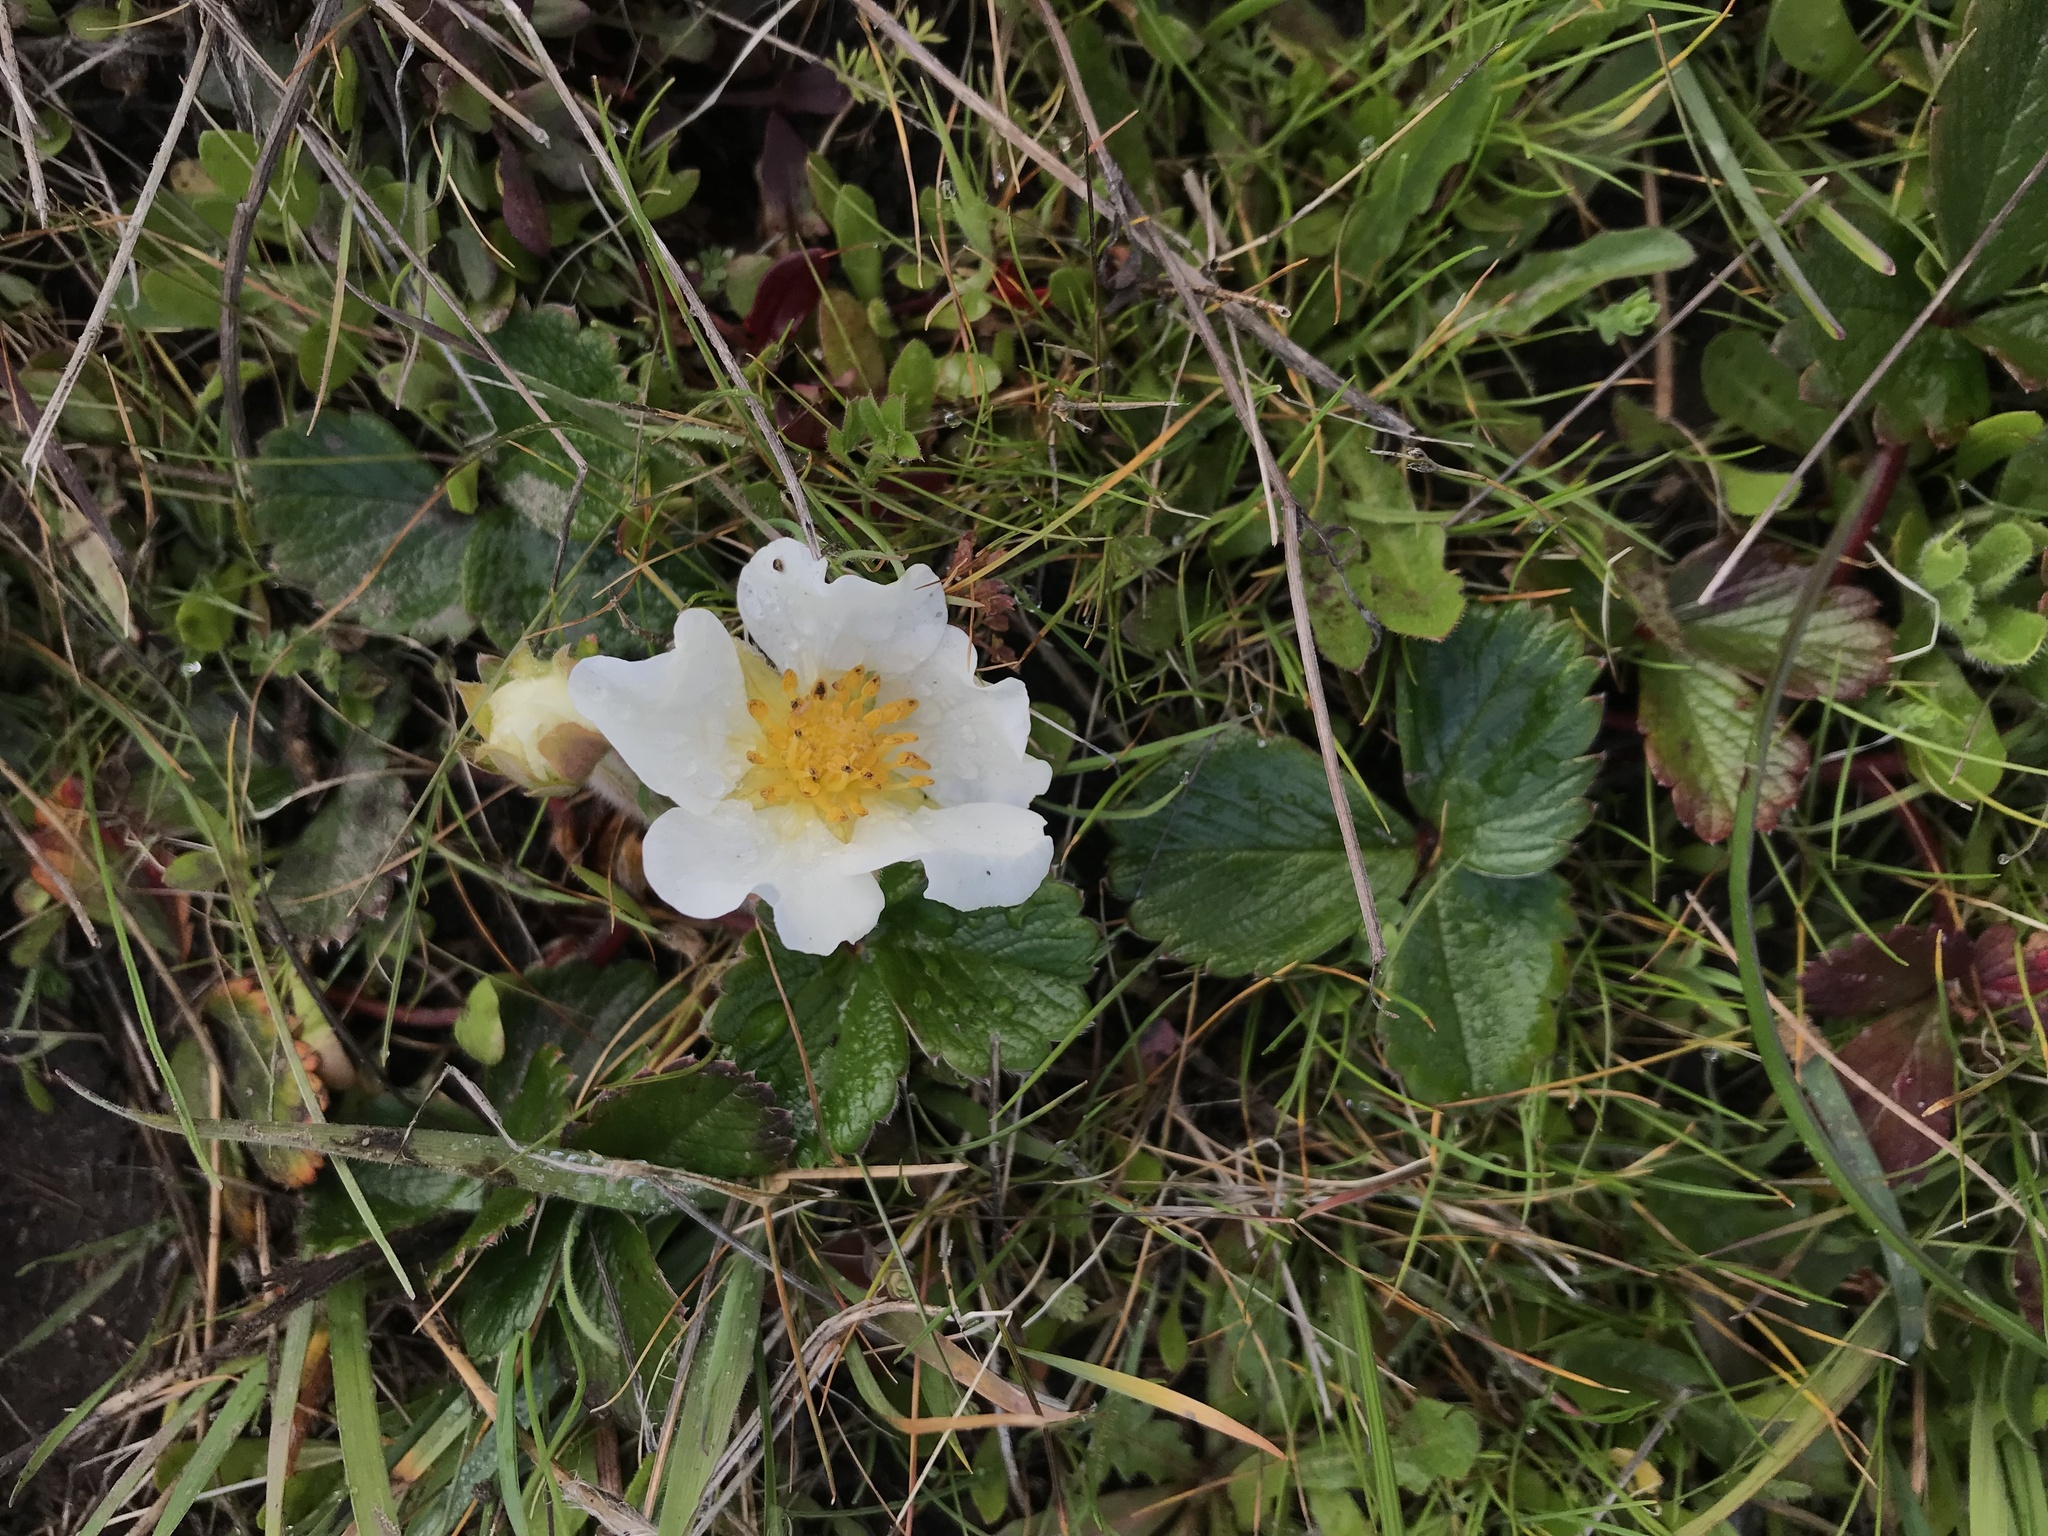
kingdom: Plantae
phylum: Tracheophyta
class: Magnoliopsida
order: Rosales
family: Rosaceae
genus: Fragaria
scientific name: Fragaria chiloensis
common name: Beach strawberry
